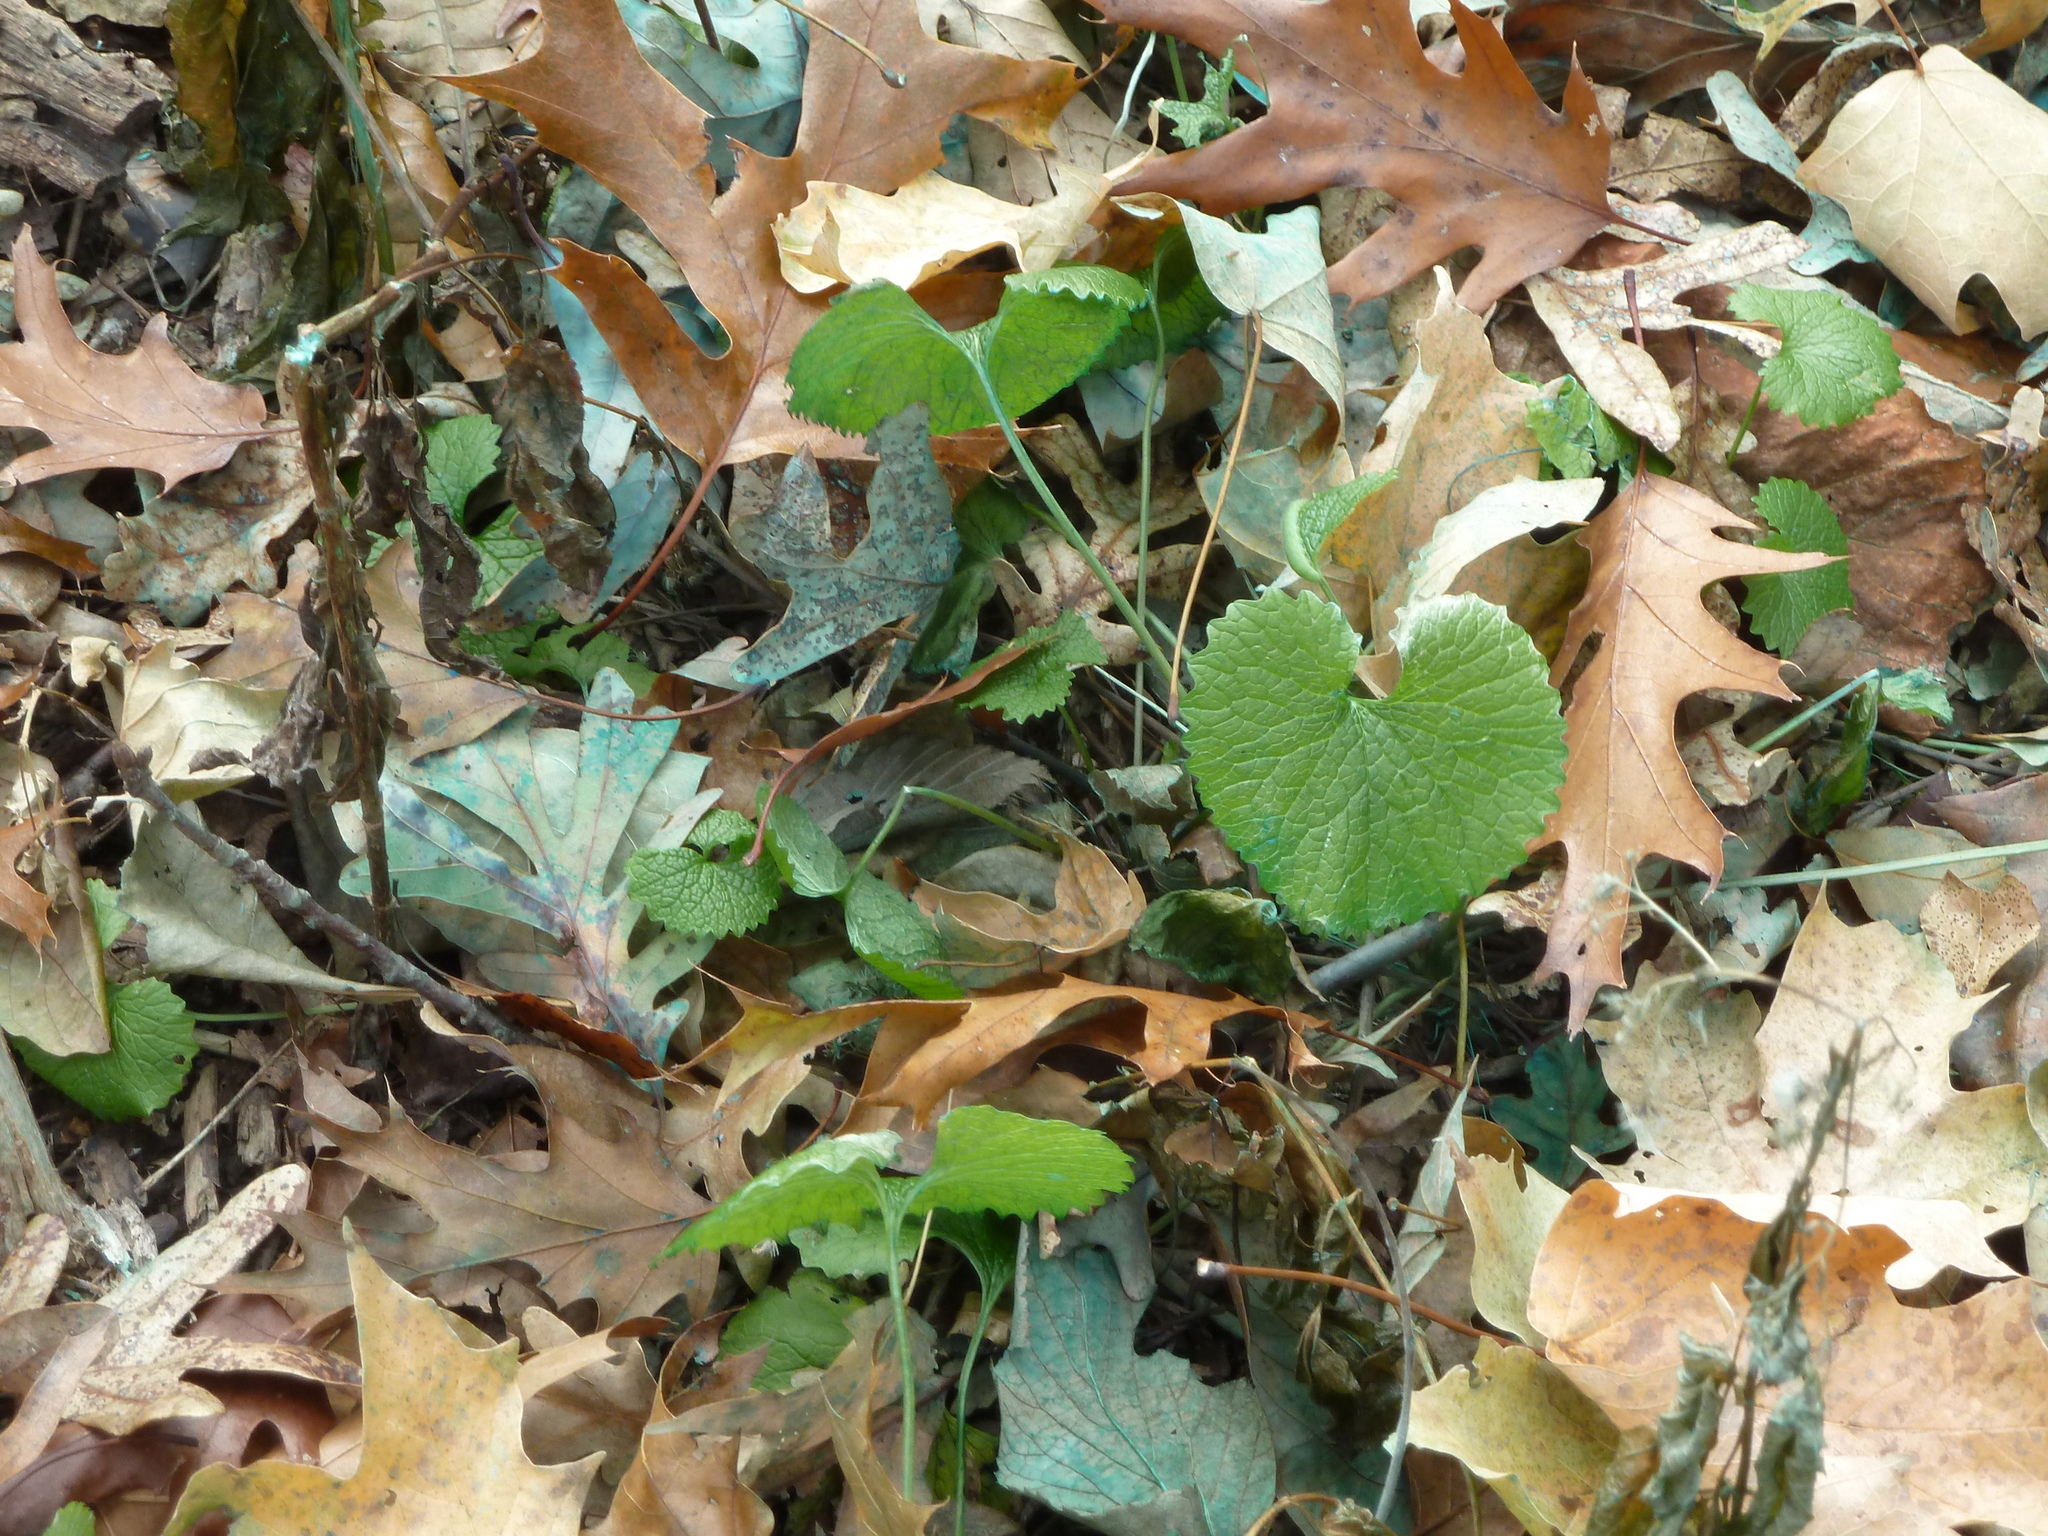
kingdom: Plantae
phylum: Tracheophyta
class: Magnoliopsida
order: Brassicales
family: Brassicaceae
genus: Alliaria
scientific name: Alliaria petiolata
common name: Garlic mustard
